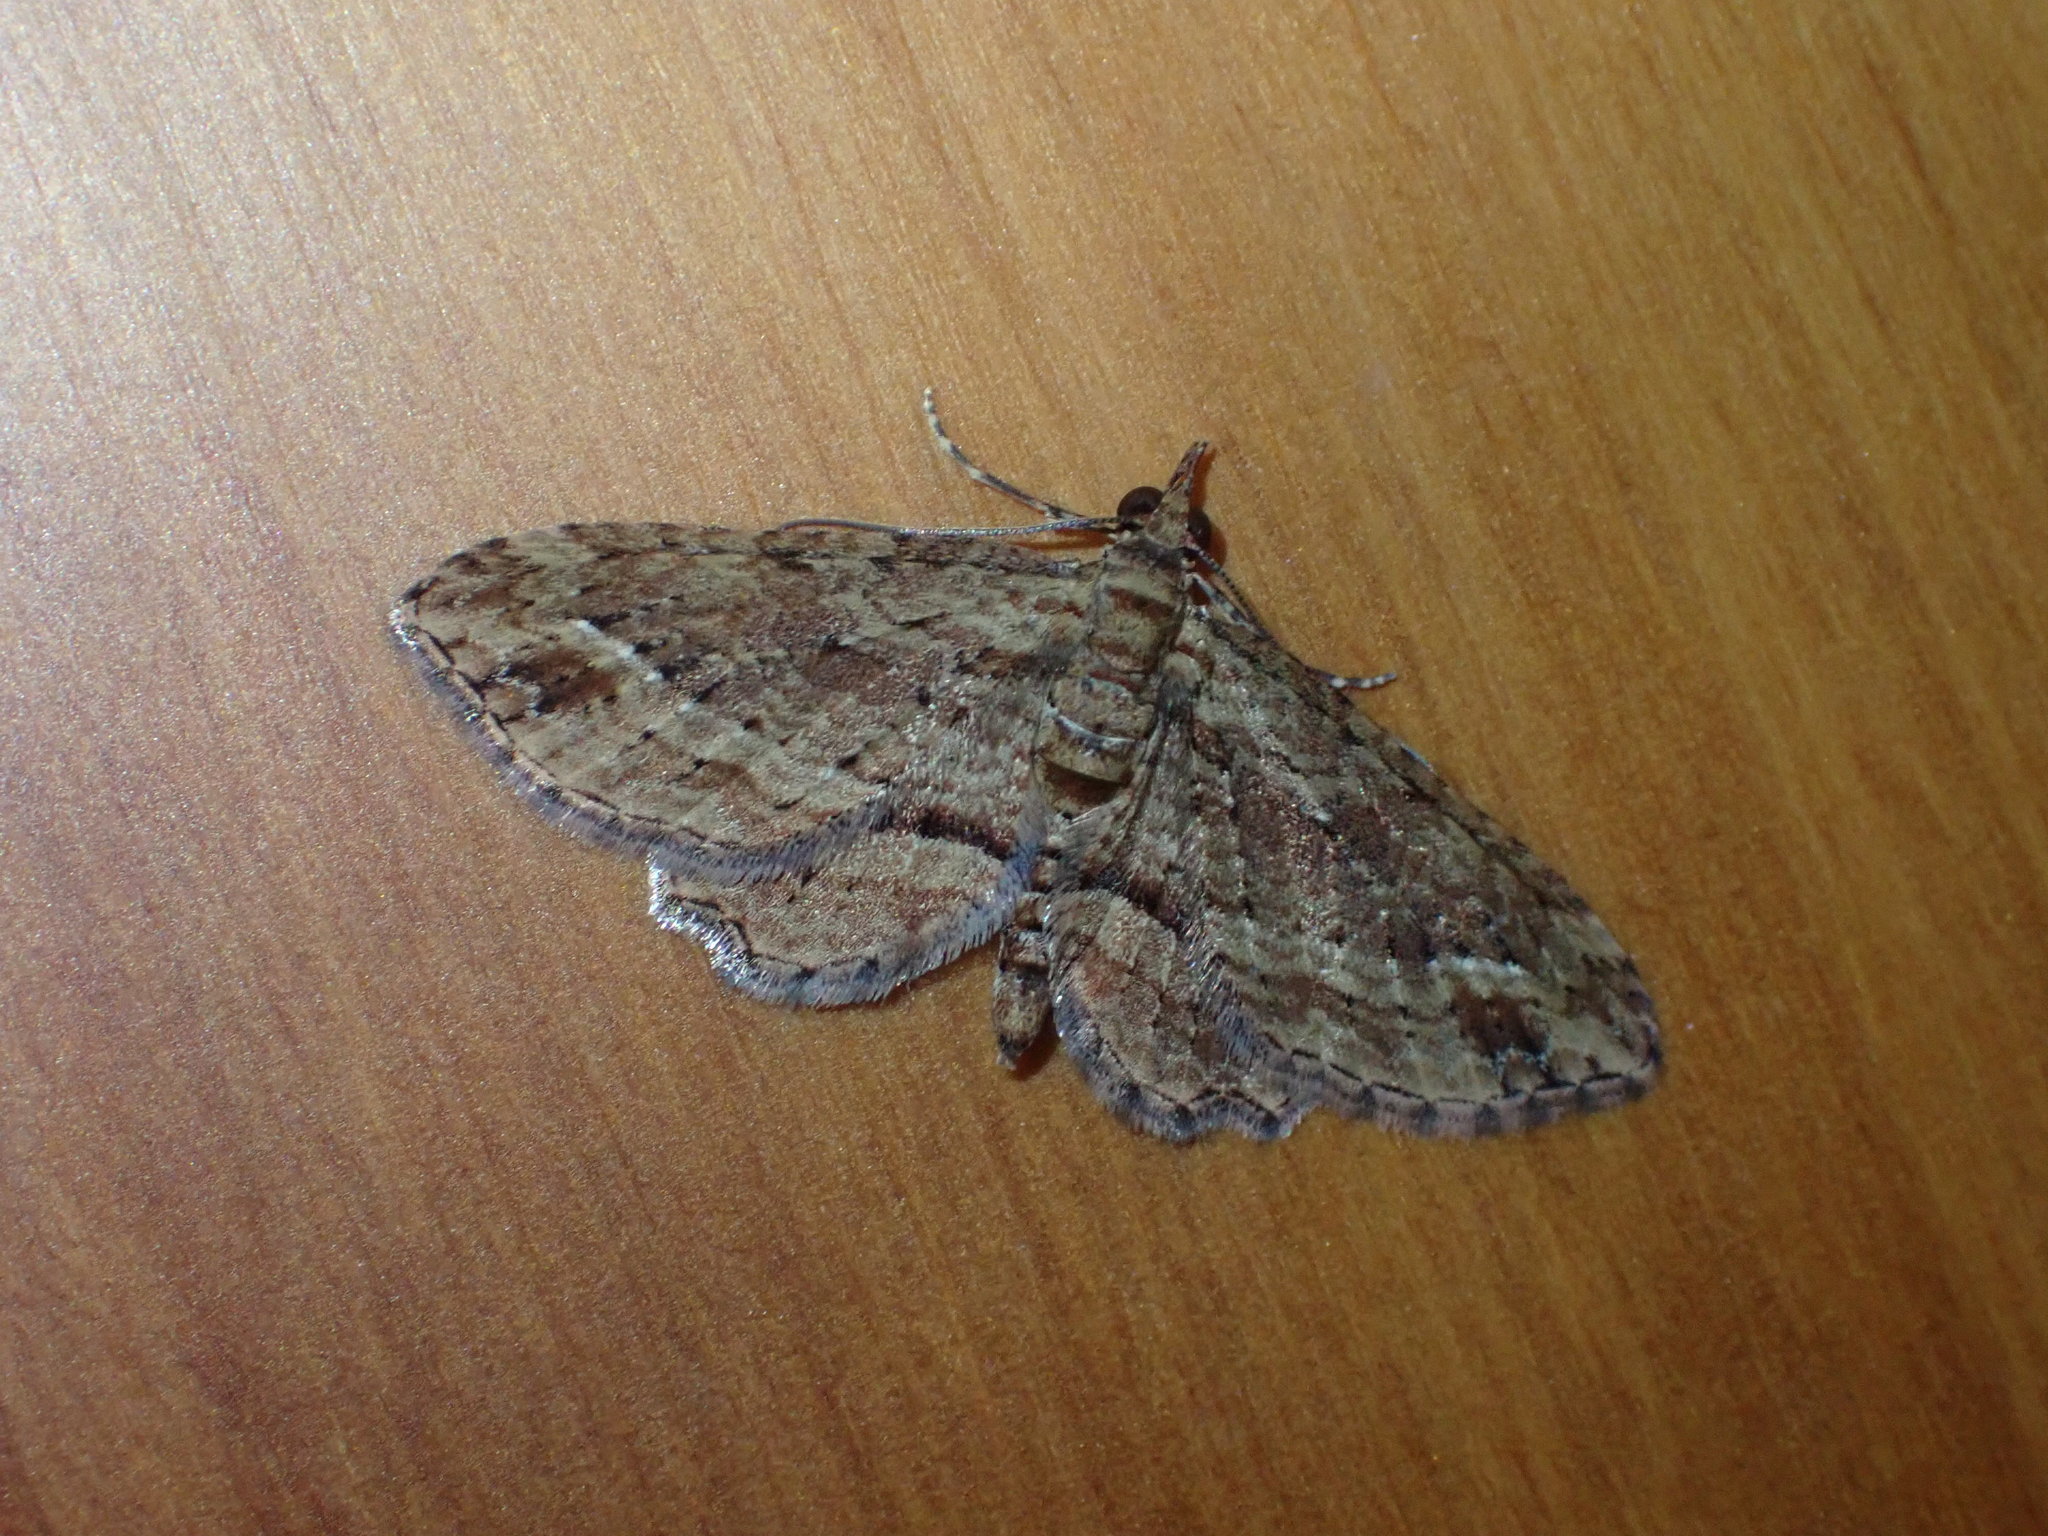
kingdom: Animalia
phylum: Arthropoda
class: Insecta
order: Lepidoptera
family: Geometridae
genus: Chloroclystis
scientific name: Chloroclystis filata
